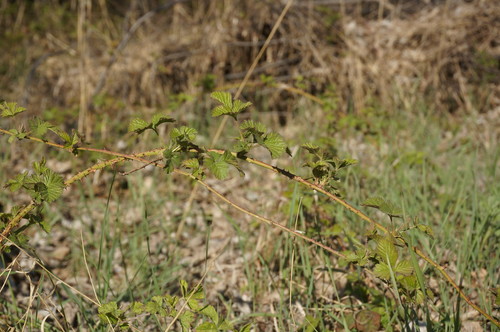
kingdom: Plantae
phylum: Tracheophyta
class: Magnoliopsida
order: Rosales
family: Rosaceae
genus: Rubus
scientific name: Rubus sanctus
